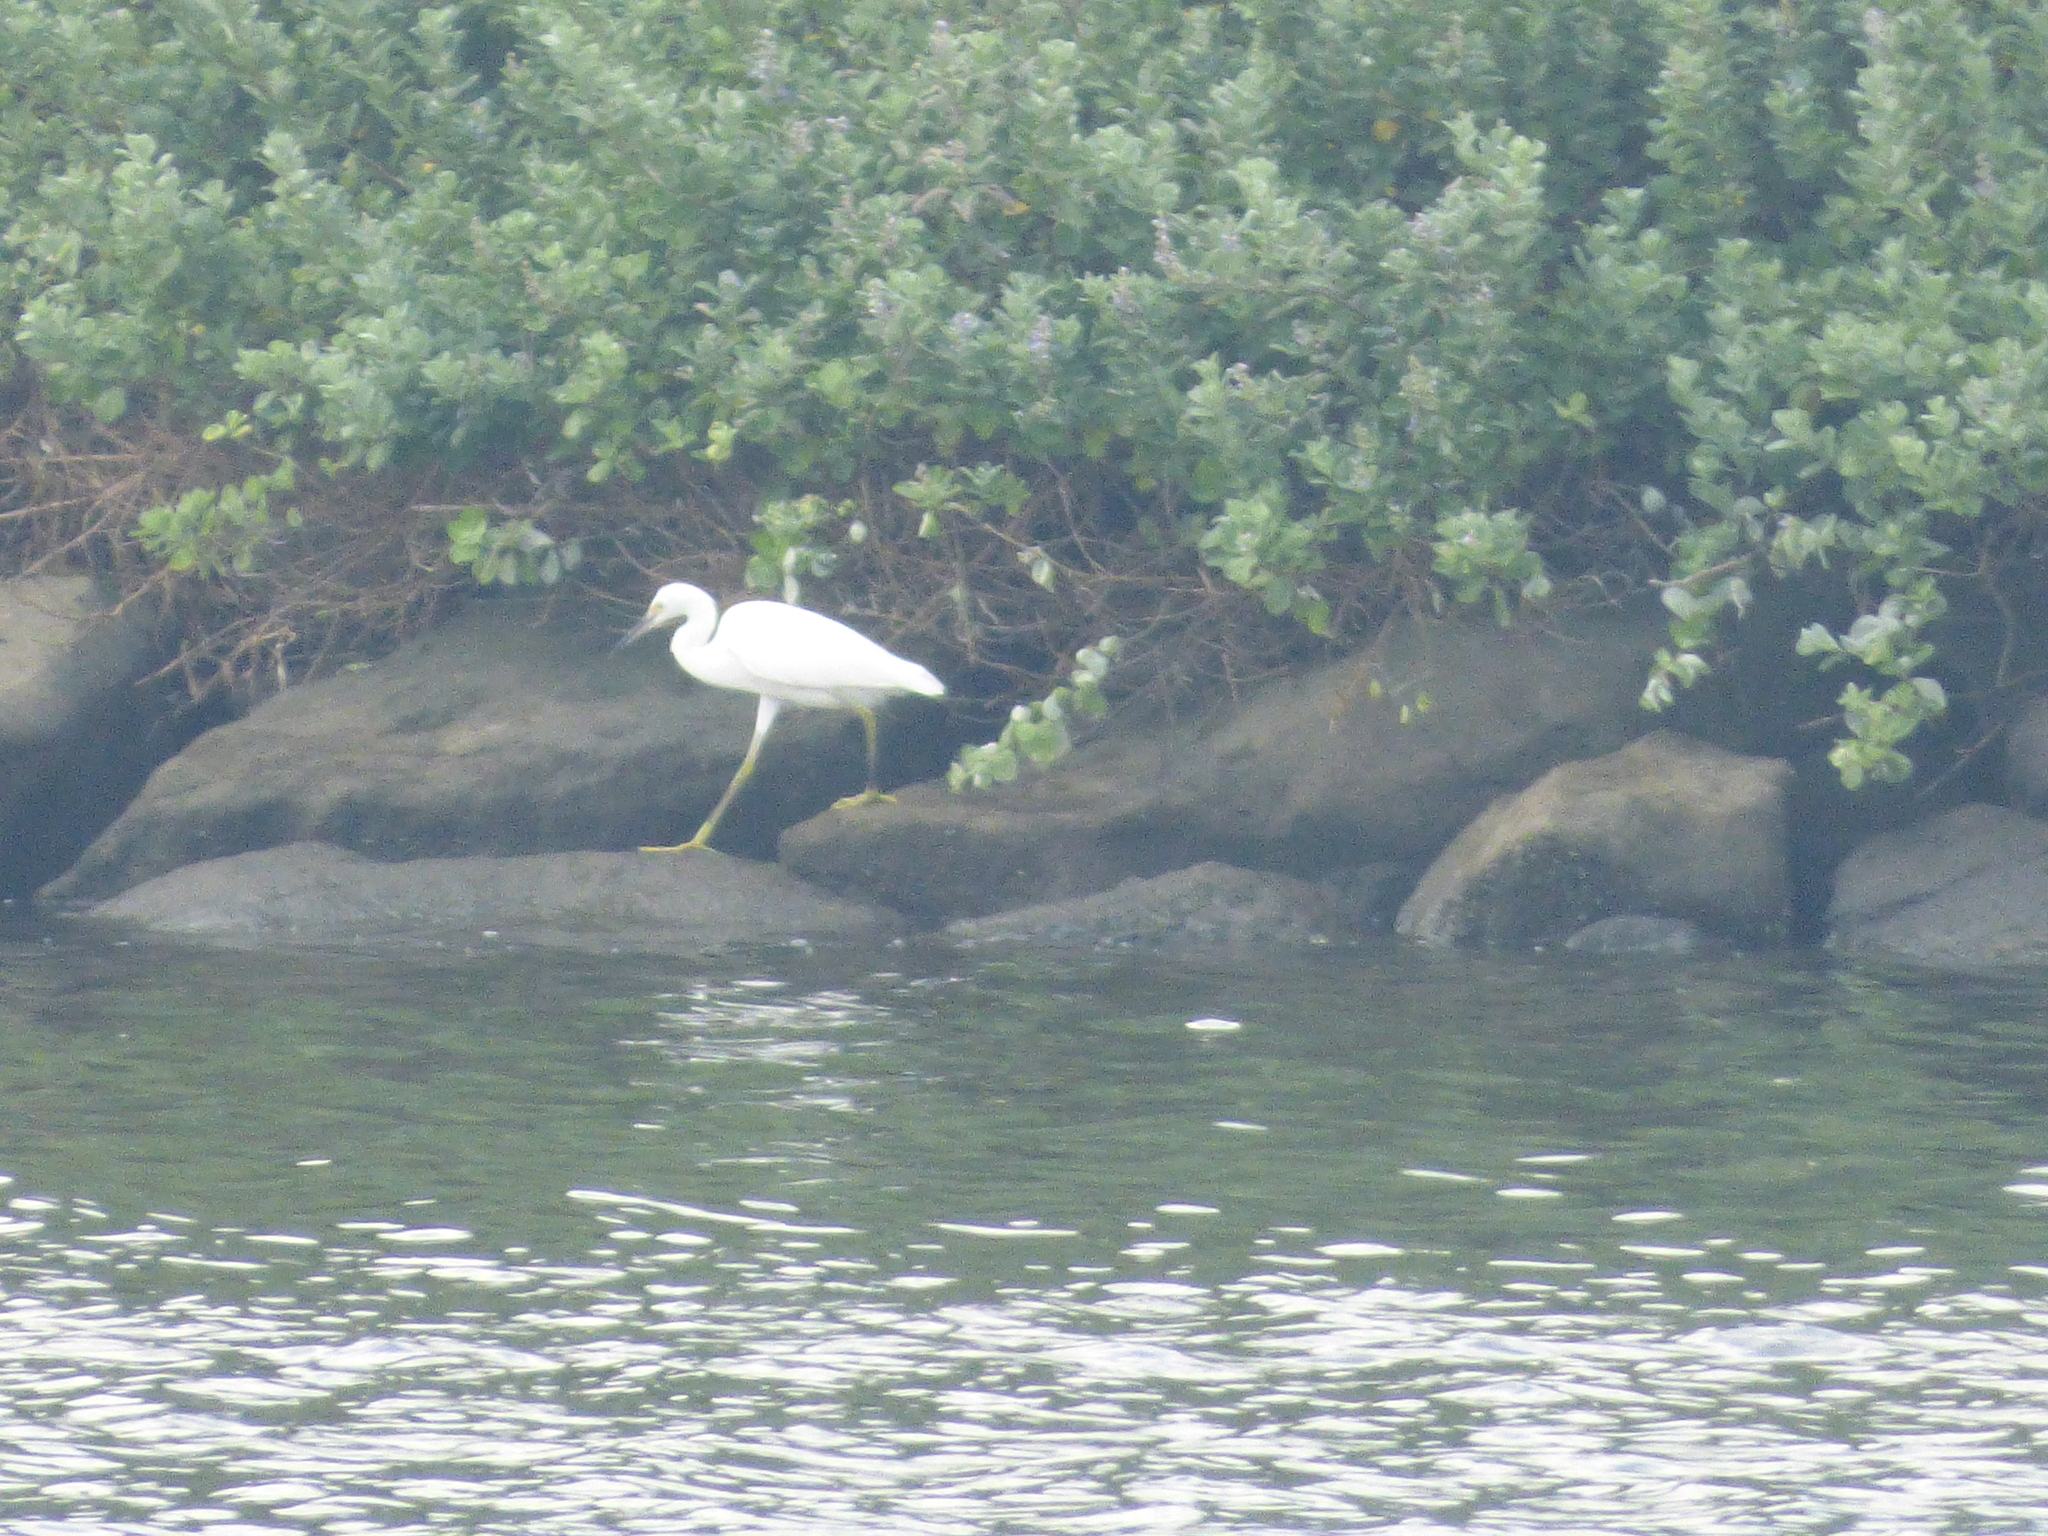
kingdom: Animalia
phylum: Chordata
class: Aves
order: Pelecaniformes
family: Ardeidae
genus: Egretta
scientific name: Egretta garzetta
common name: Little egret
